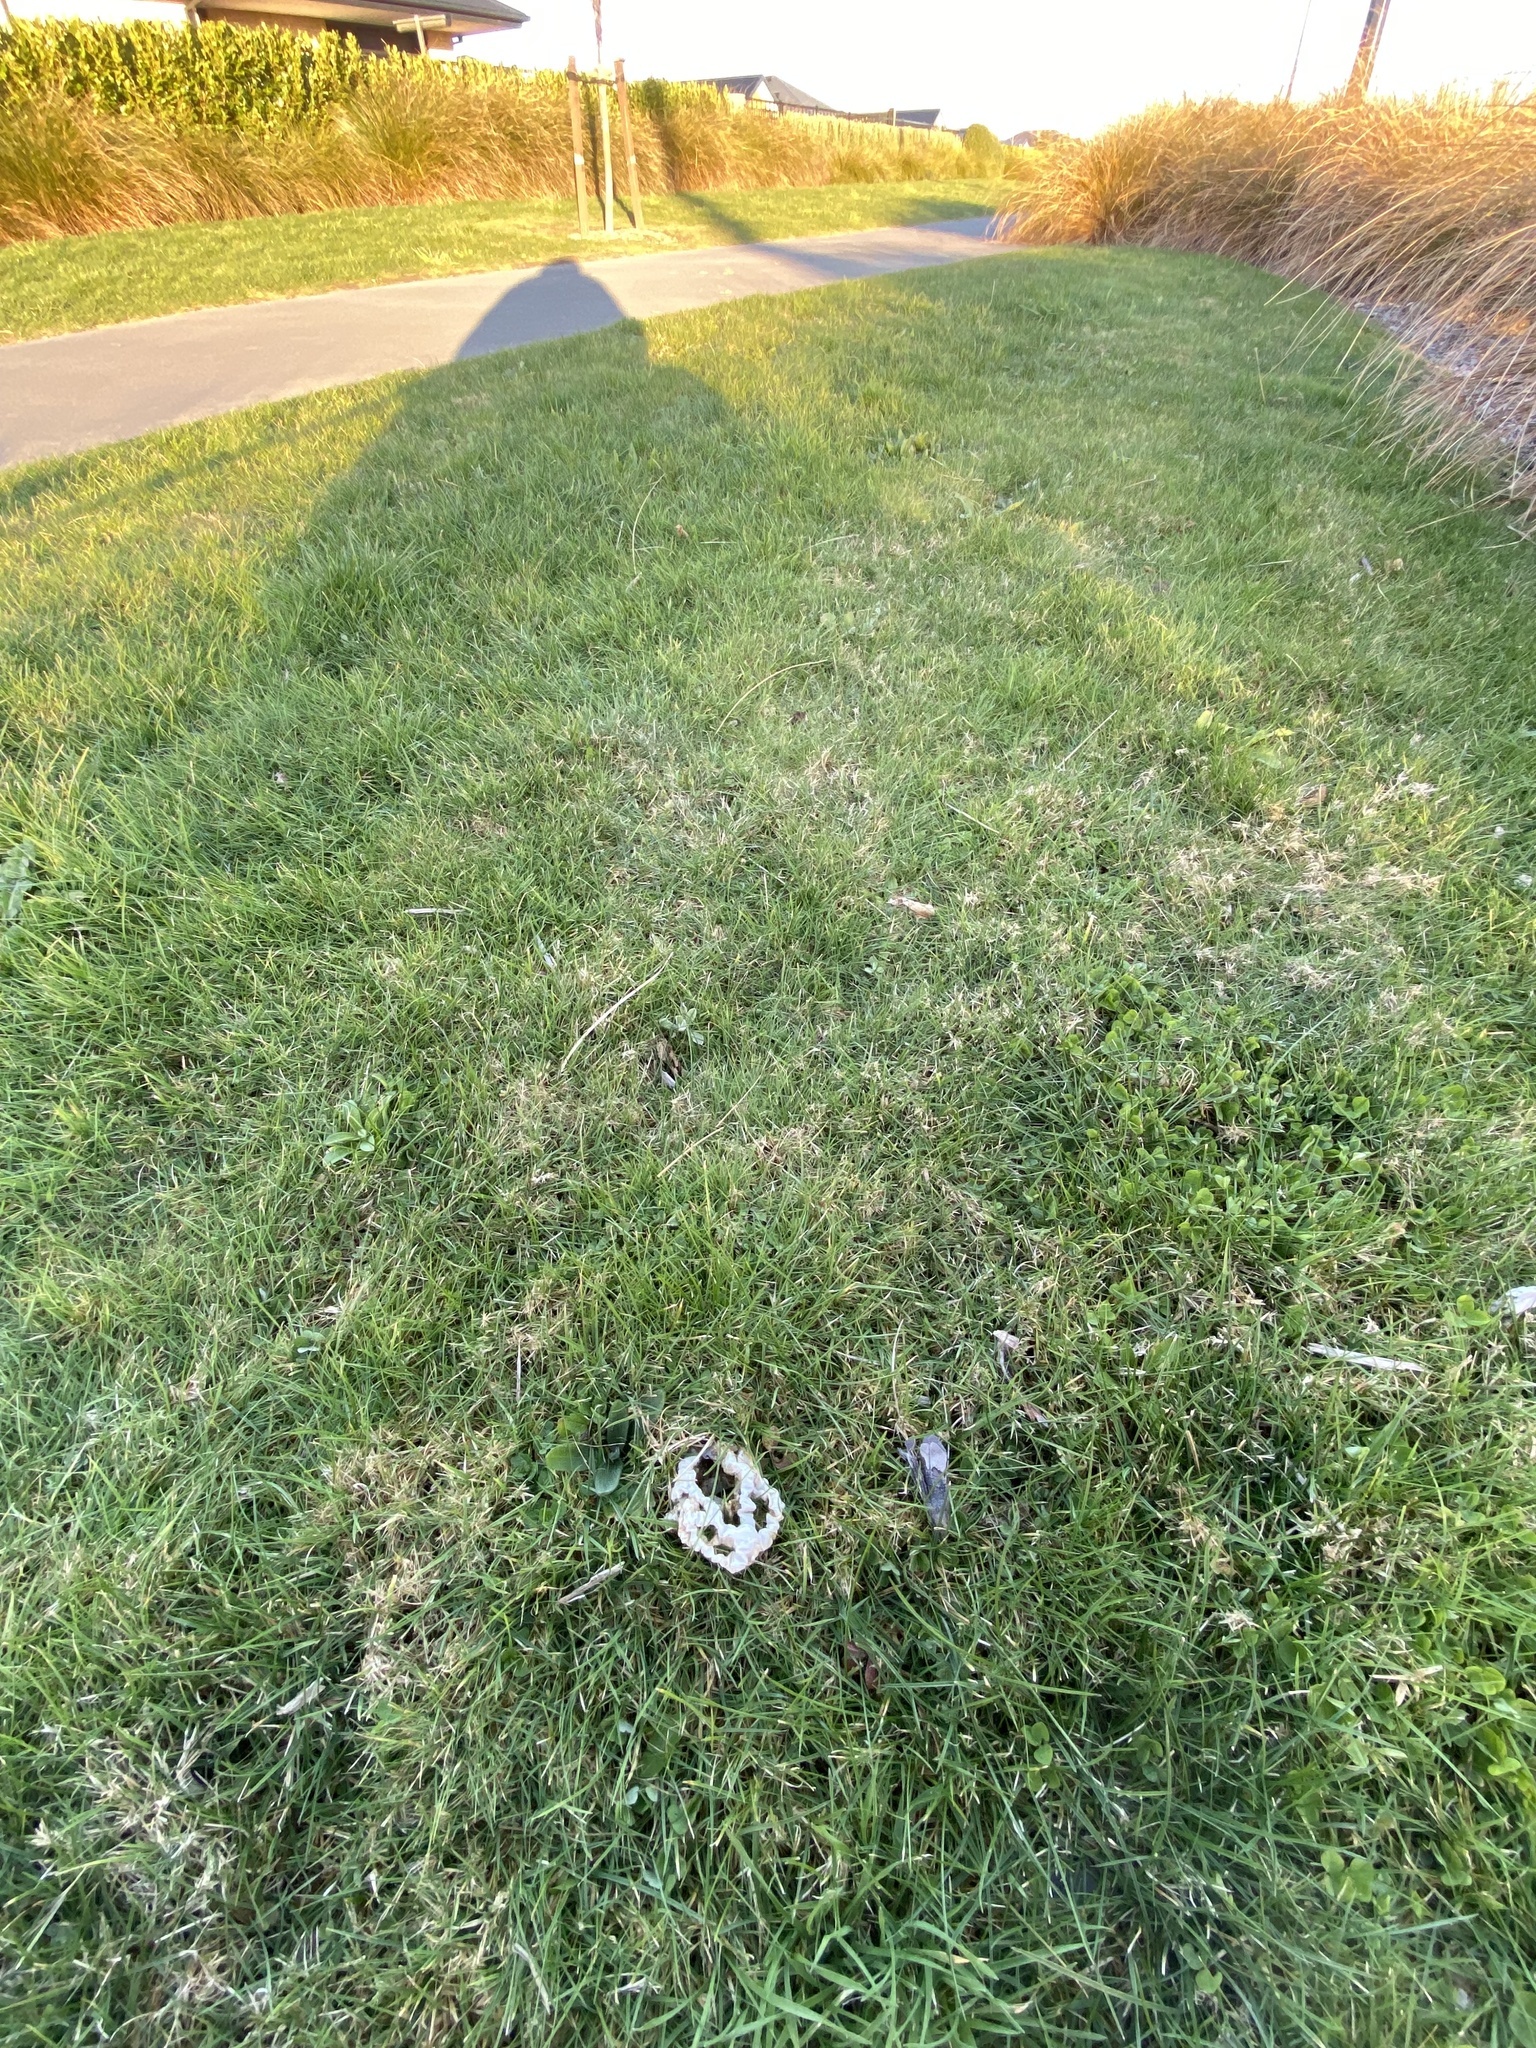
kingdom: Fungi
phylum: Basidiomycota
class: Agaricomycetes
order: Phallales
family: Phallaceae
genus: Ileodictyon
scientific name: Ileodictyon cibarium
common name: Basket fungus
